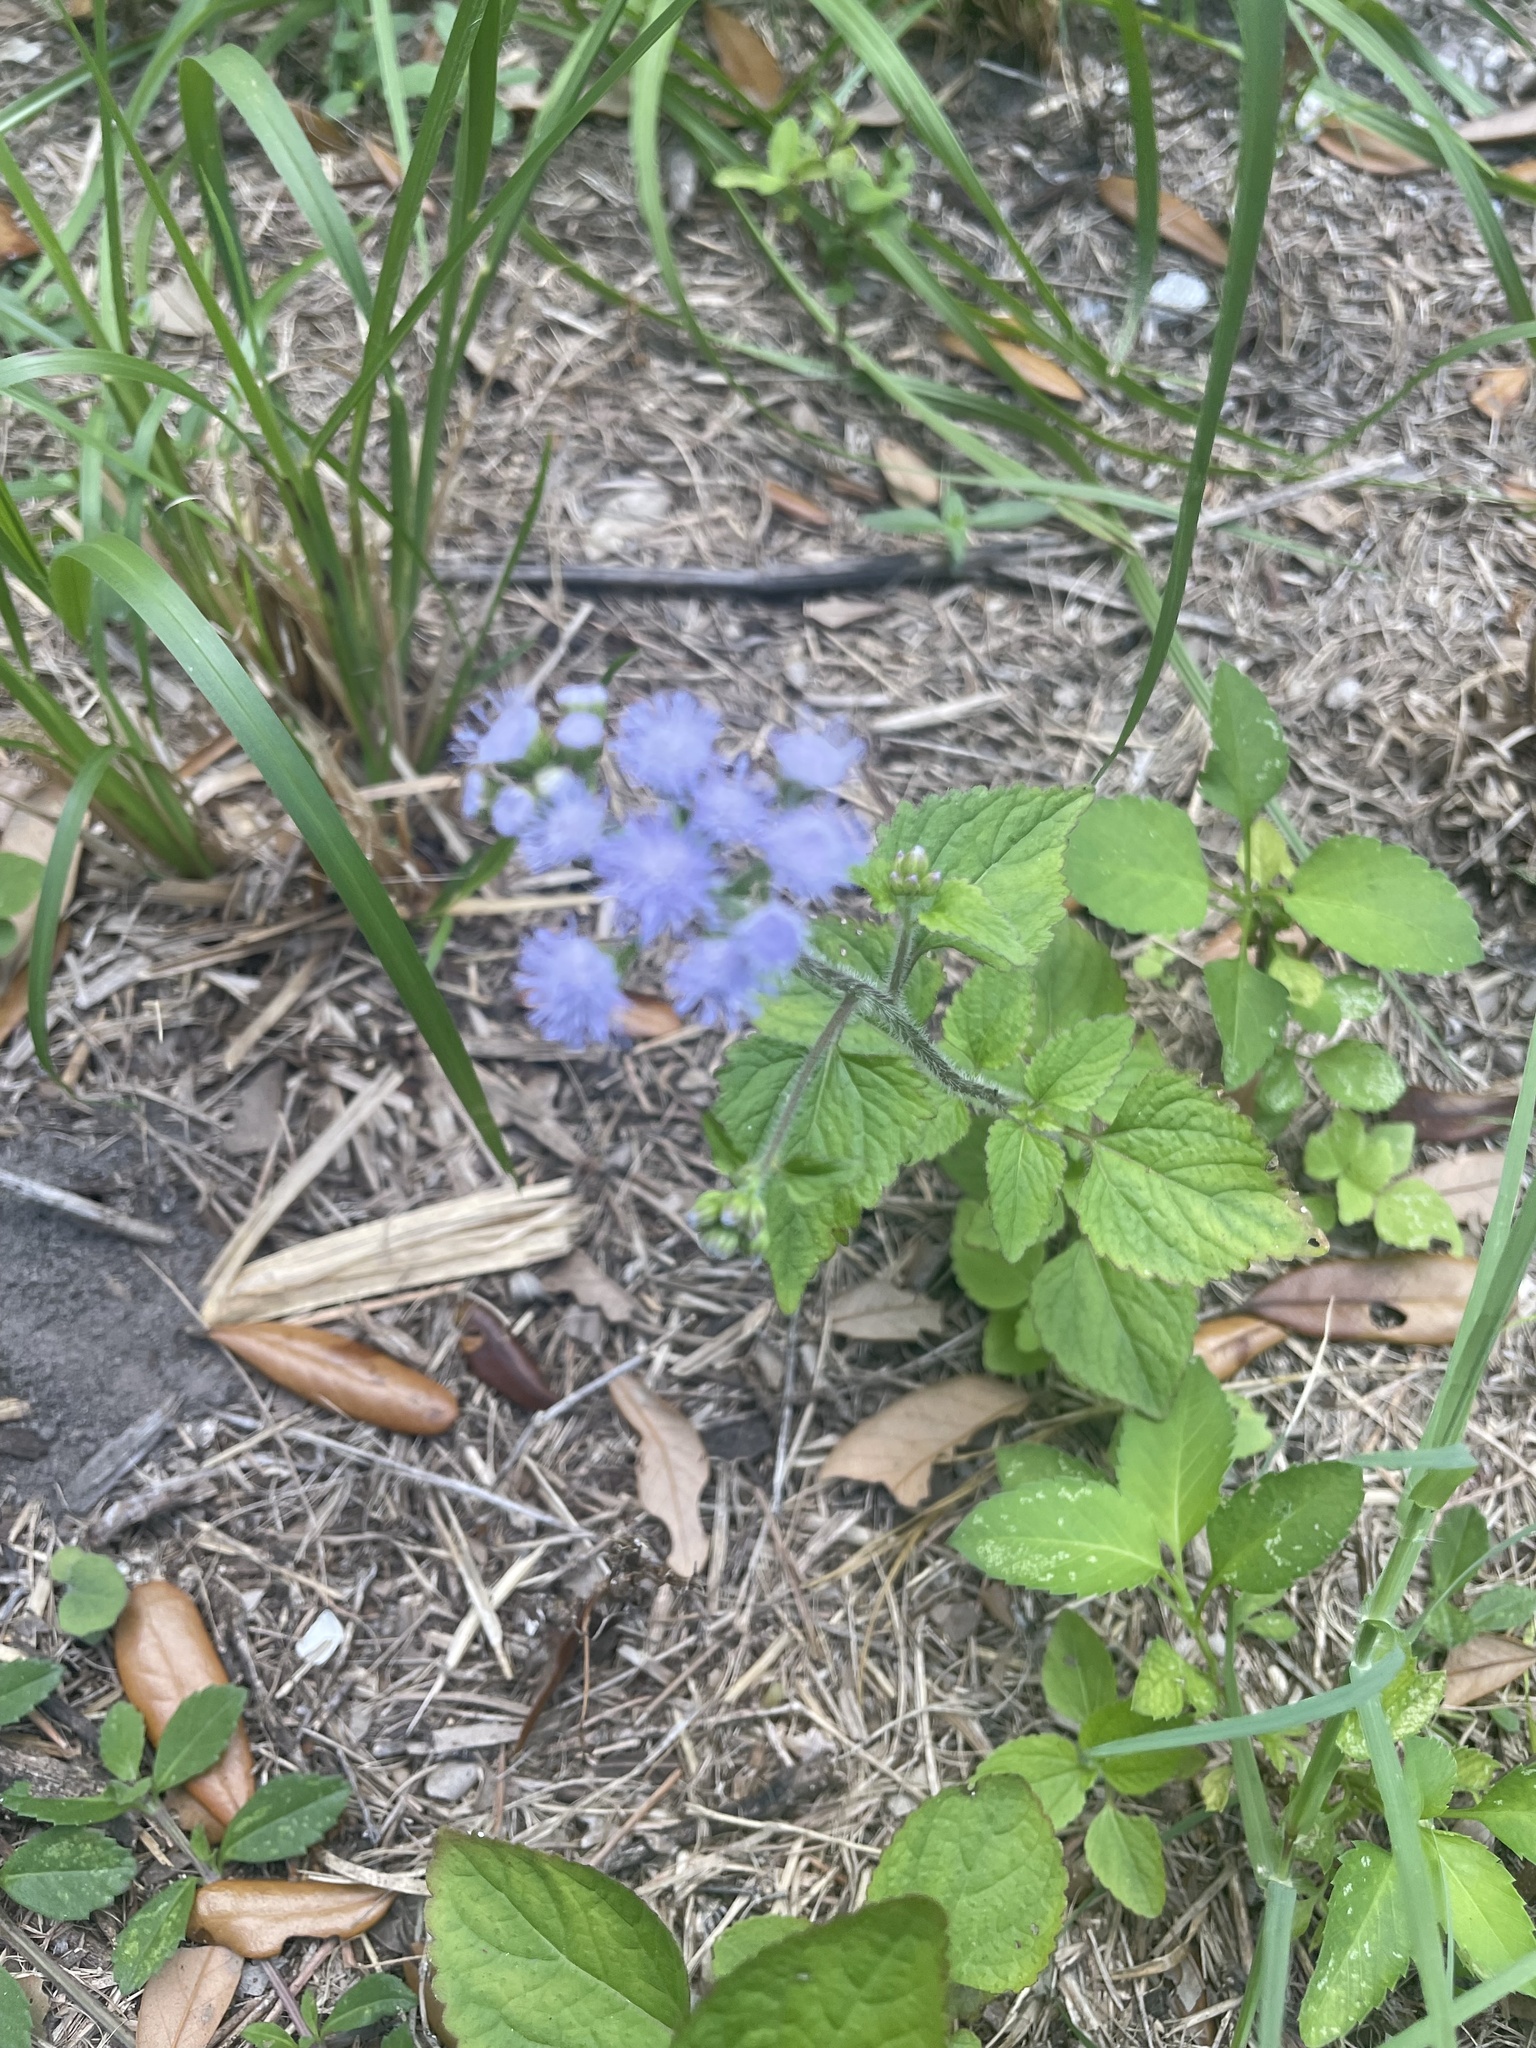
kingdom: Plantae
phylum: Tracheophyta
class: Magnoliopsida
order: Asterales
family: Asteraceae
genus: Ageratum
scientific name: Ageratum houstonianum
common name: Bluemink
